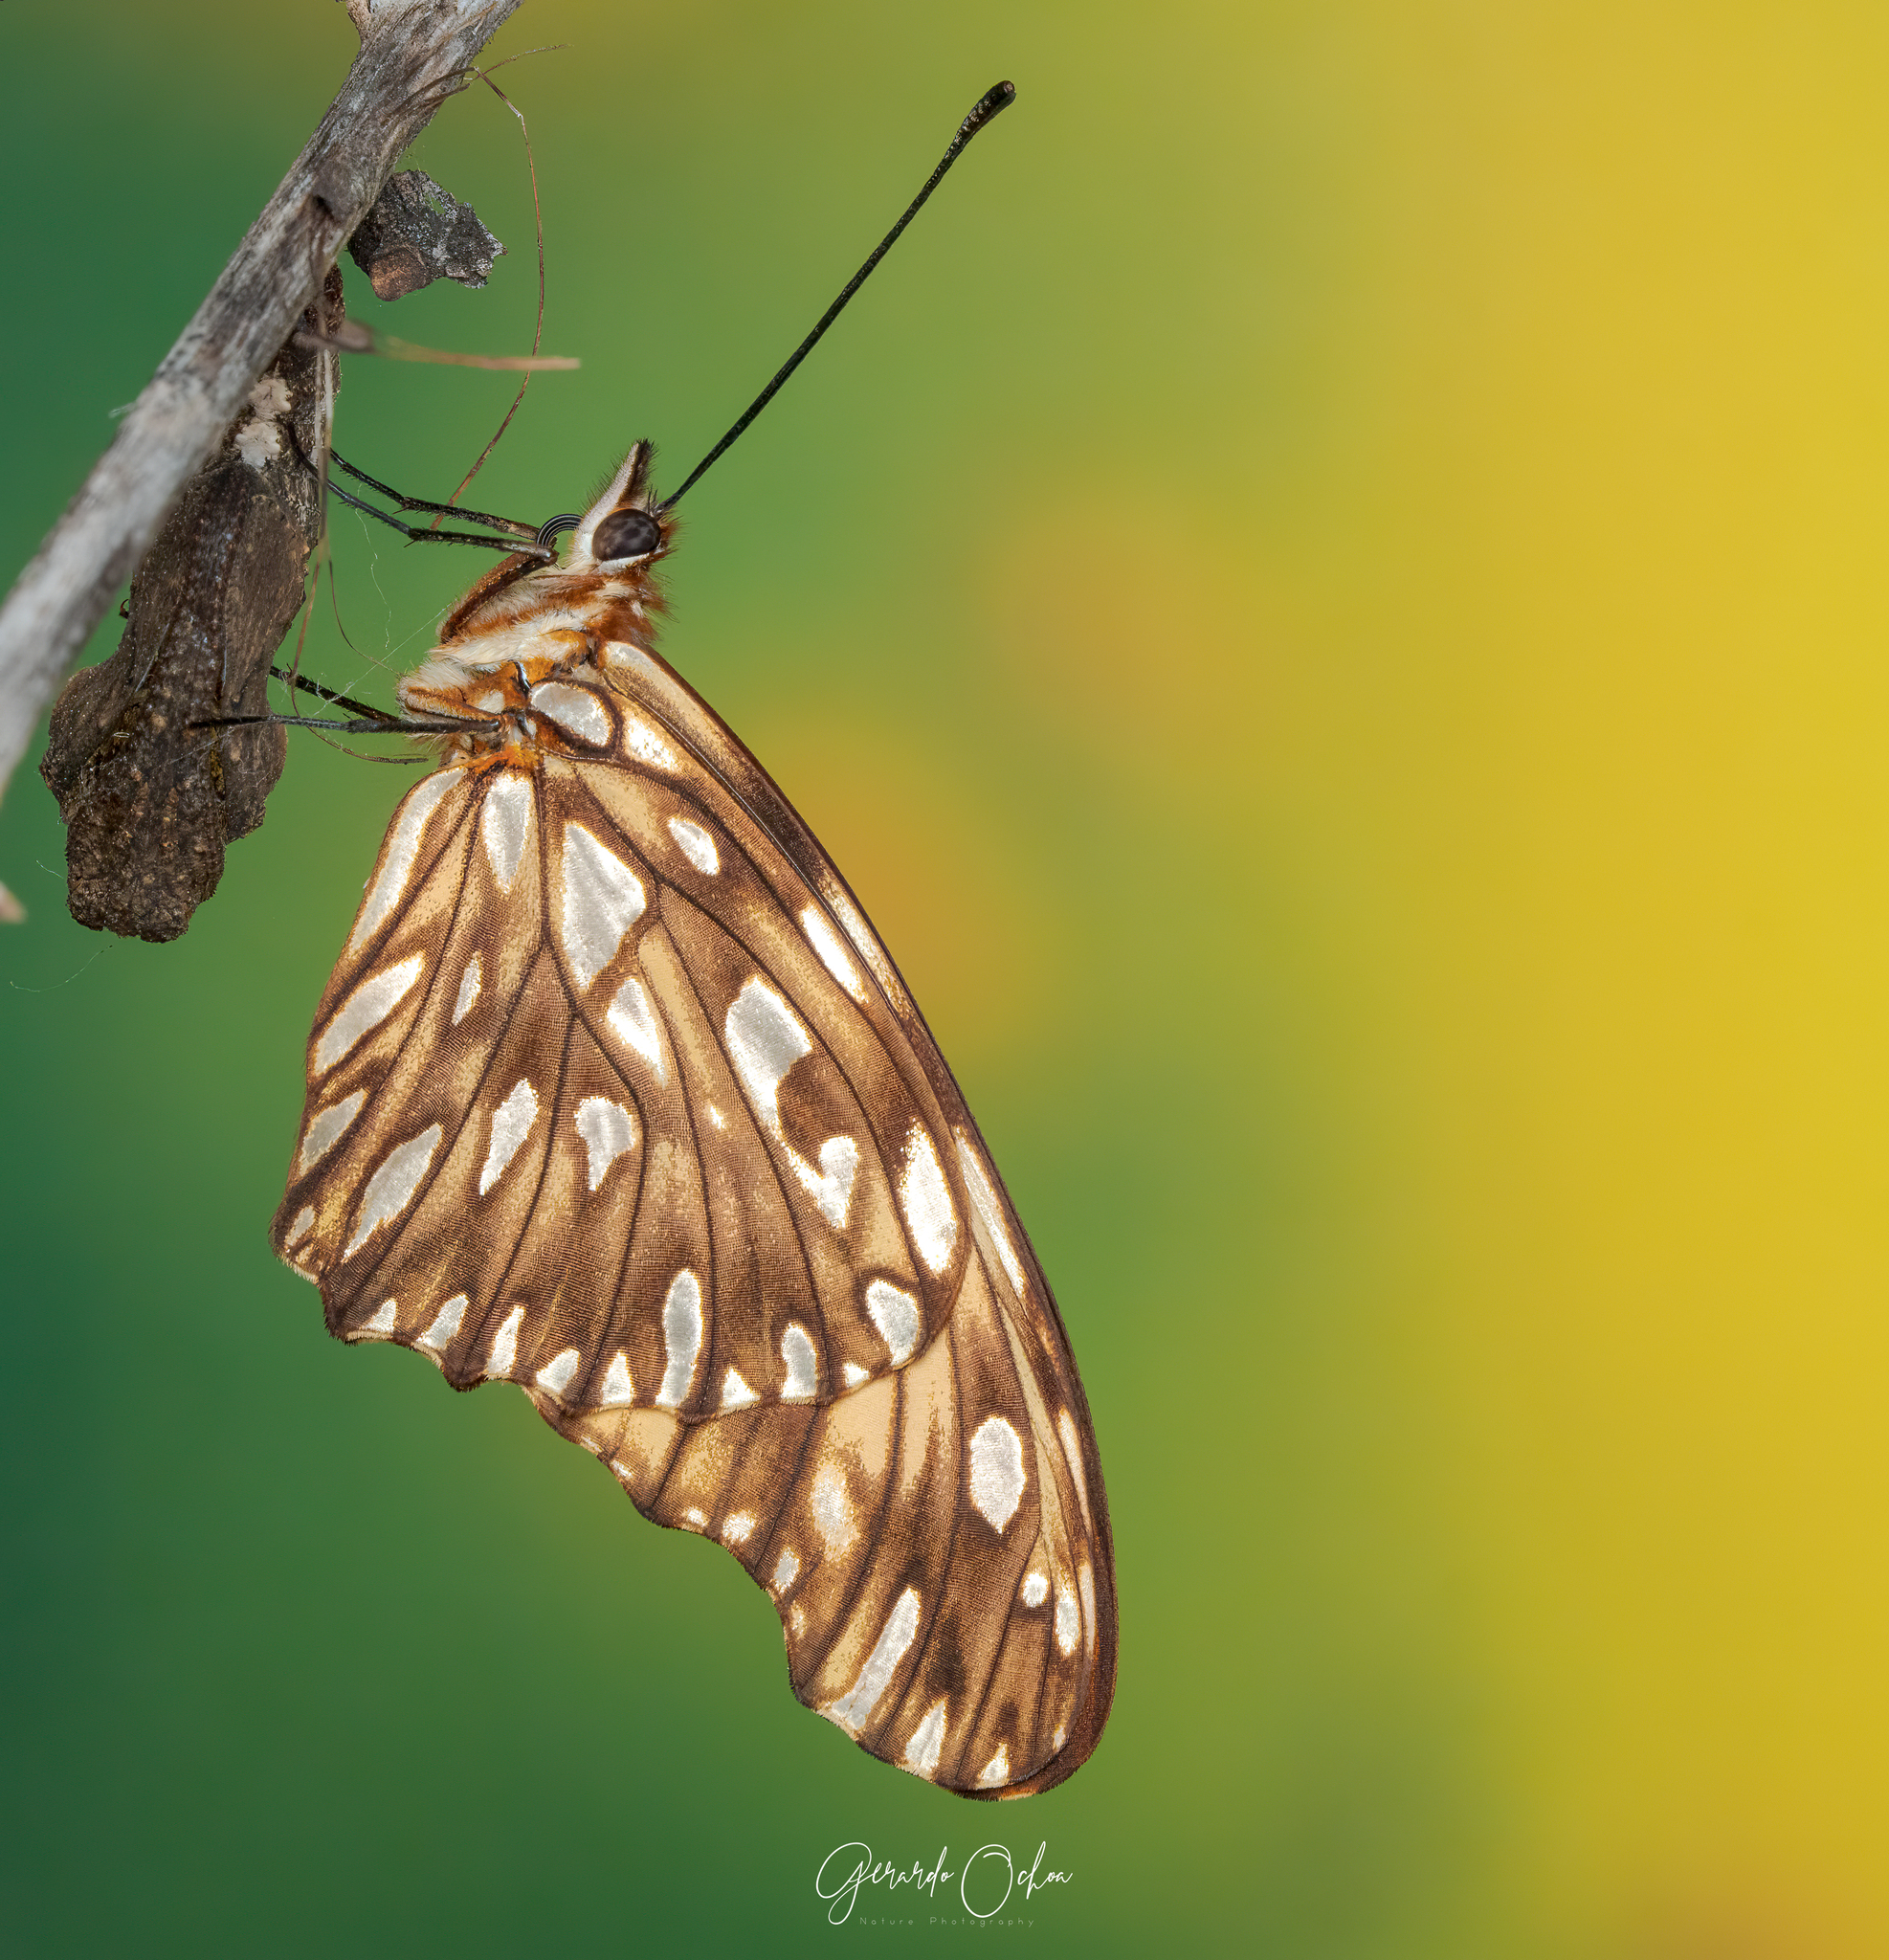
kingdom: Animalia
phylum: Arthropoda
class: Insecta
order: Lepidoptera
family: Nymphalidae
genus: Dione
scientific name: Dione juno
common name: Juno silverspot
